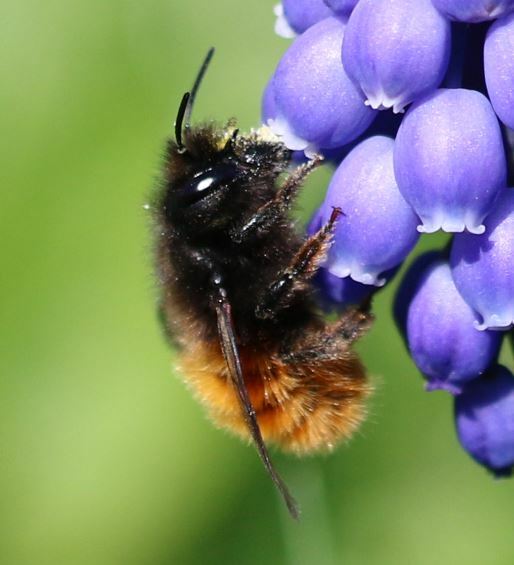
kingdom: Animalia
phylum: Arthropoda
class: Insecta
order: Hymenoptera
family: Megachilidae
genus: Osmia
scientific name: Osmia cornuta
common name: Mason bee
